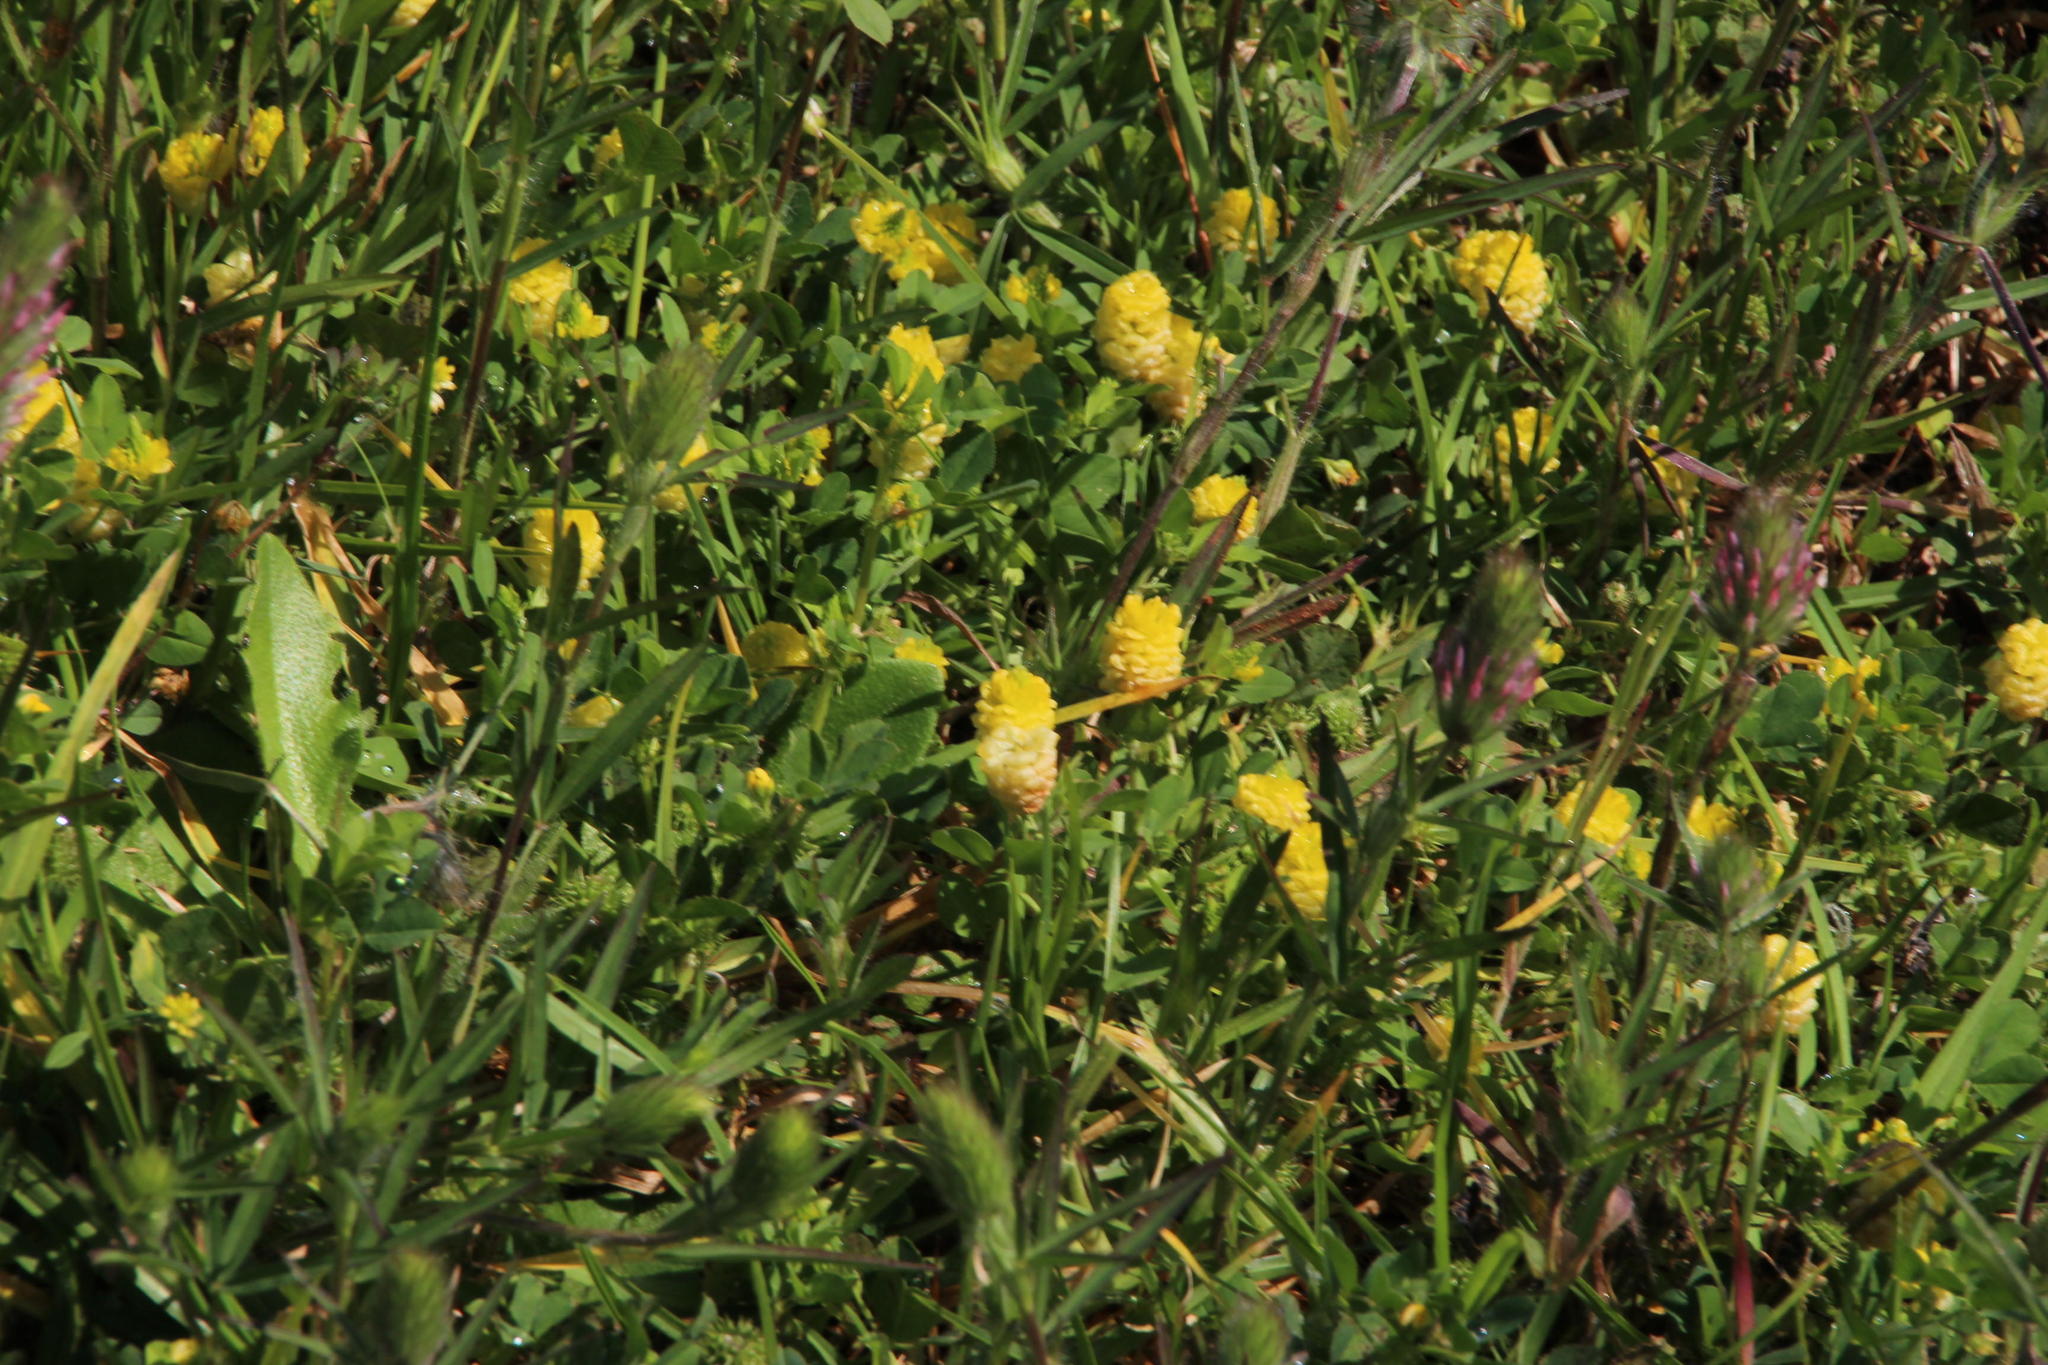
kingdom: Plantae
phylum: Tracheophyta
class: Magnoliopsida
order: Fabales
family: Fabaceae
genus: Trifolium
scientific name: Trifolium campestre
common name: Field clover
